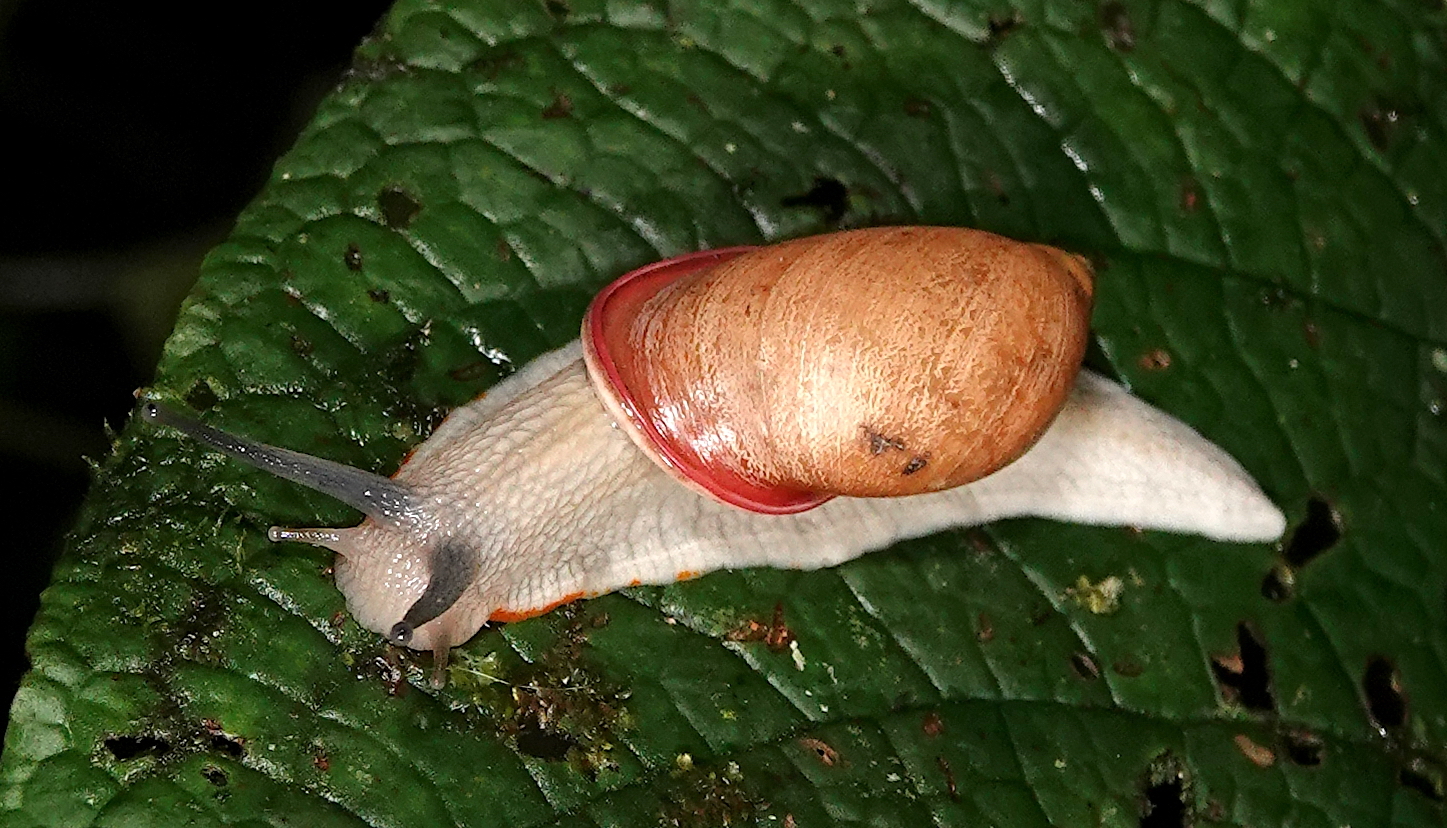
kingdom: Animalia
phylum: Mollusca
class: Gastropoda
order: Stylommatophora
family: Amphibulimidae
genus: Plekocheilus
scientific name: Plekocheilus calliostomus
